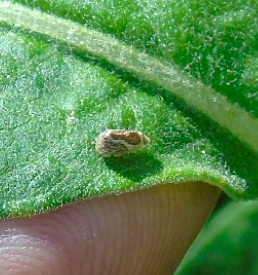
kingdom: Animalia
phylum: Arthropoda
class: Insecta
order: Hemiptera
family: Membracidae
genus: Publilia
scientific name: Publilia erecta
